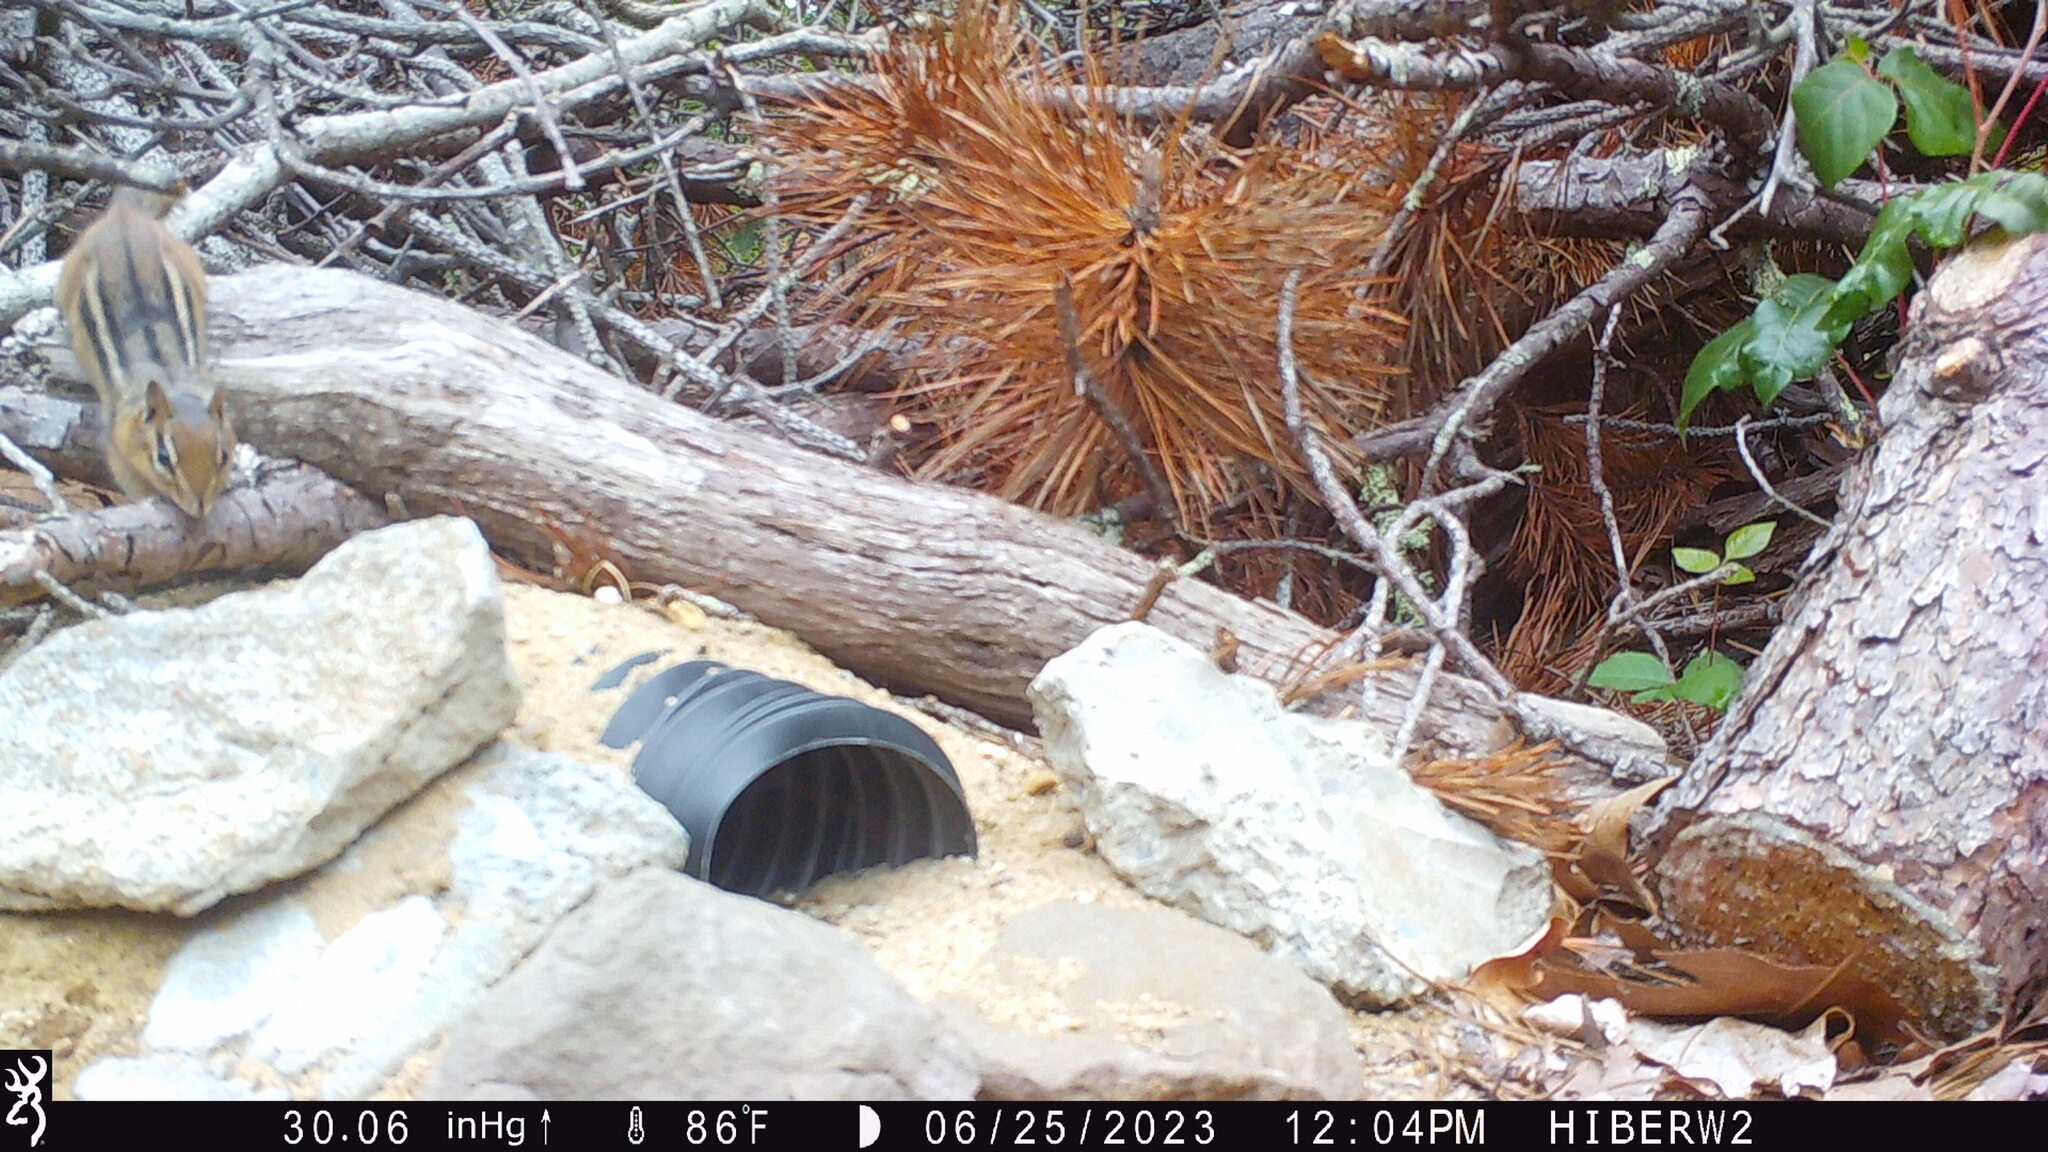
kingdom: Animalia
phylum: Chordata
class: Mammalia
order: Rodentia
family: Sciuridae
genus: Tamias
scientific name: Tamias striatus
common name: Eastern chipmunk
